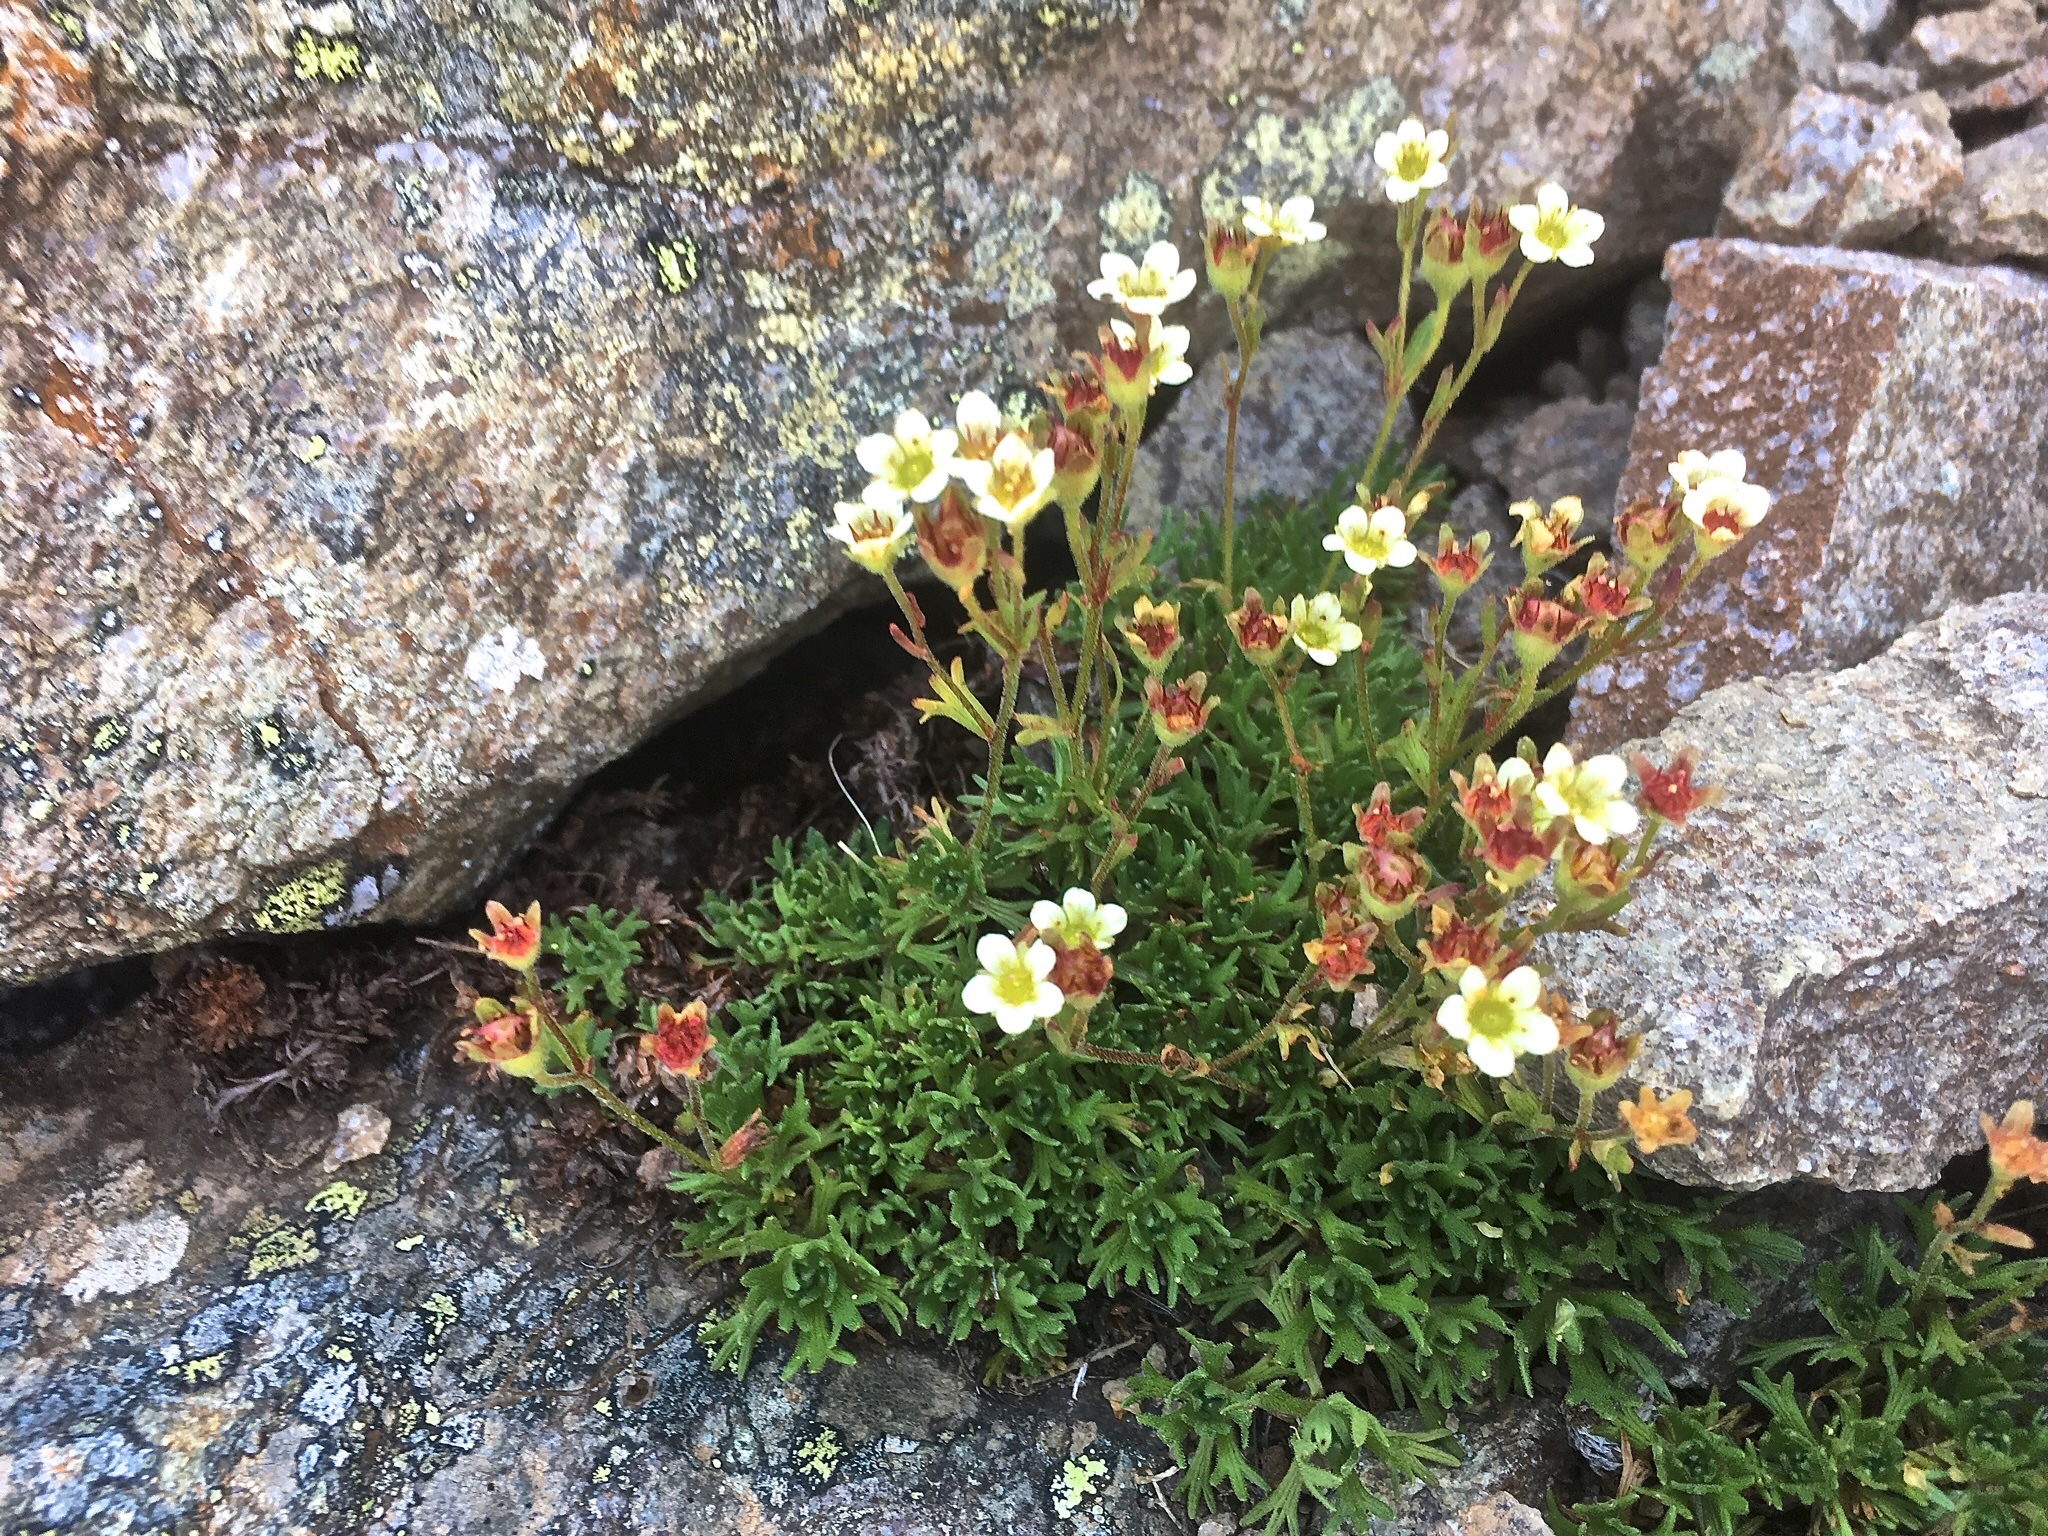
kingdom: Plantae
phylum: Tracheophyta
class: Magnoliopsida
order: Saxifragales
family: Saxifragaceae
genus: Saxifraga
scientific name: Saxifraga exarata
